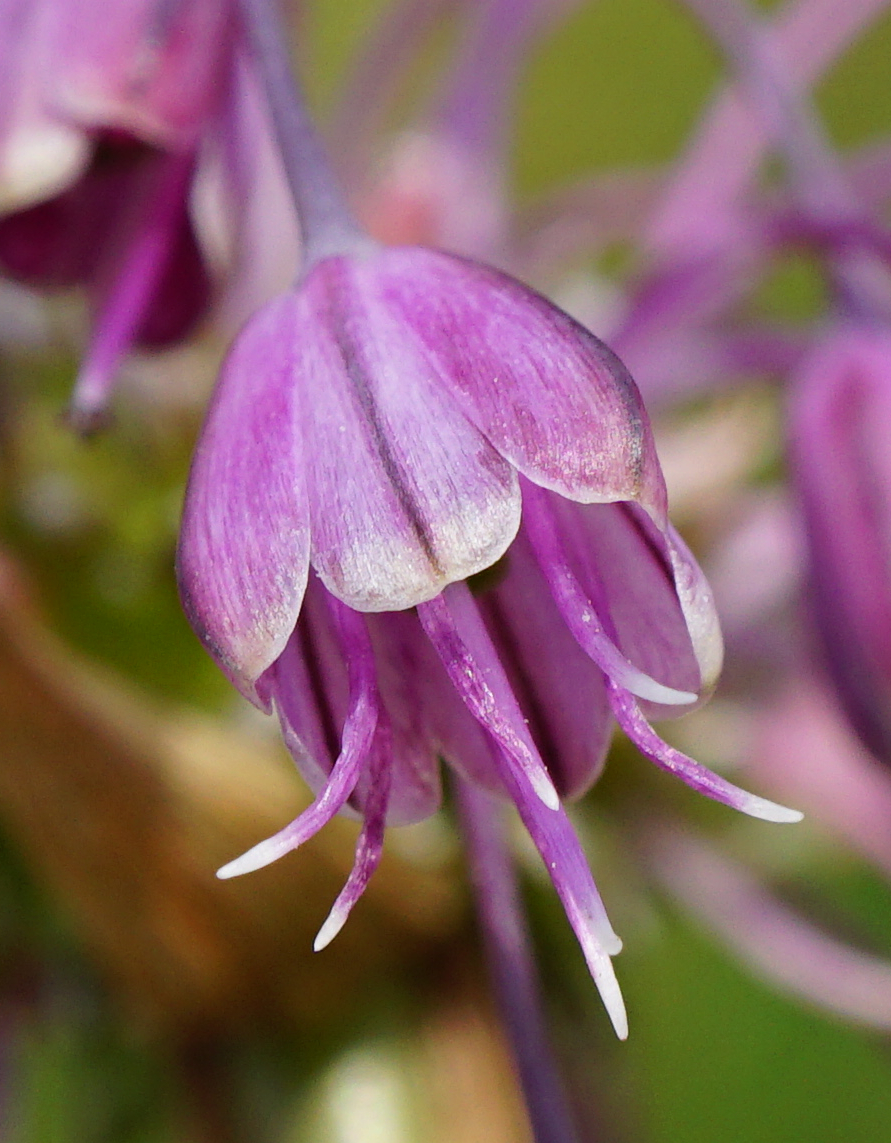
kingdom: Plantae
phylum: Tracheophyta
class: Liliopsida
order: Asparagales
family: Amaryllidaceae
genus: Allium
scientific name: Allium carinatum
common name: Keeled garlic
